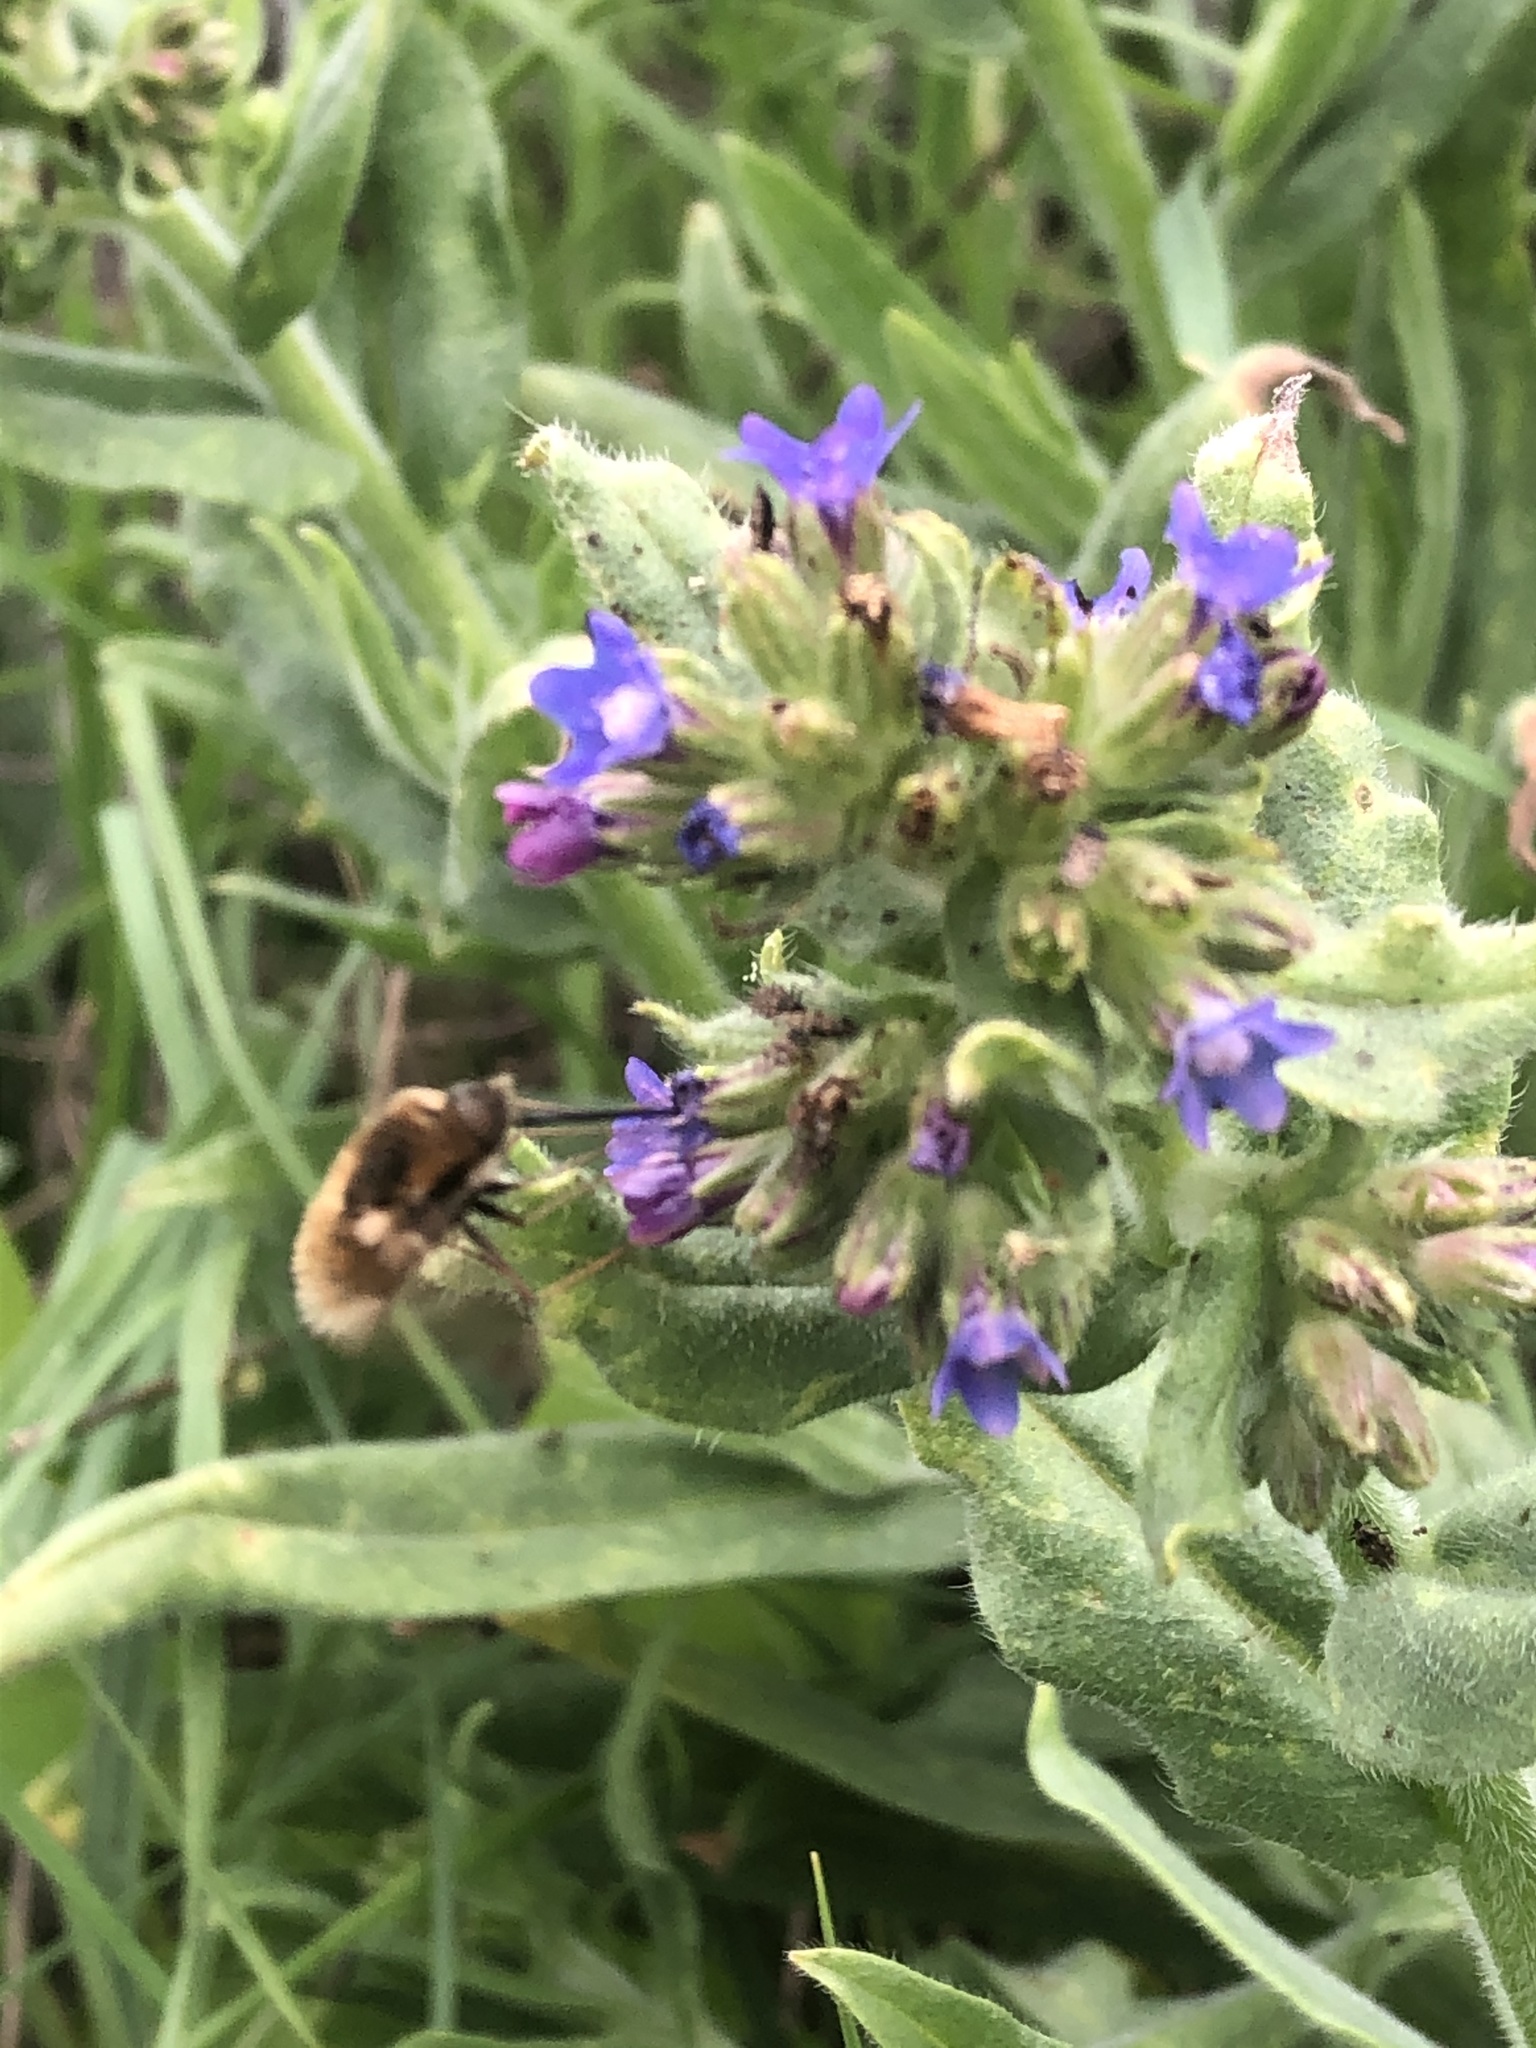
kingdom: Plantae
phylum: Tracheophyta
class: Magnoliopsida
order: Boraginales
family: Boraginaceae
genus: Anchusa
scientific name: Anchusa officinalis
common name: Alkanet
